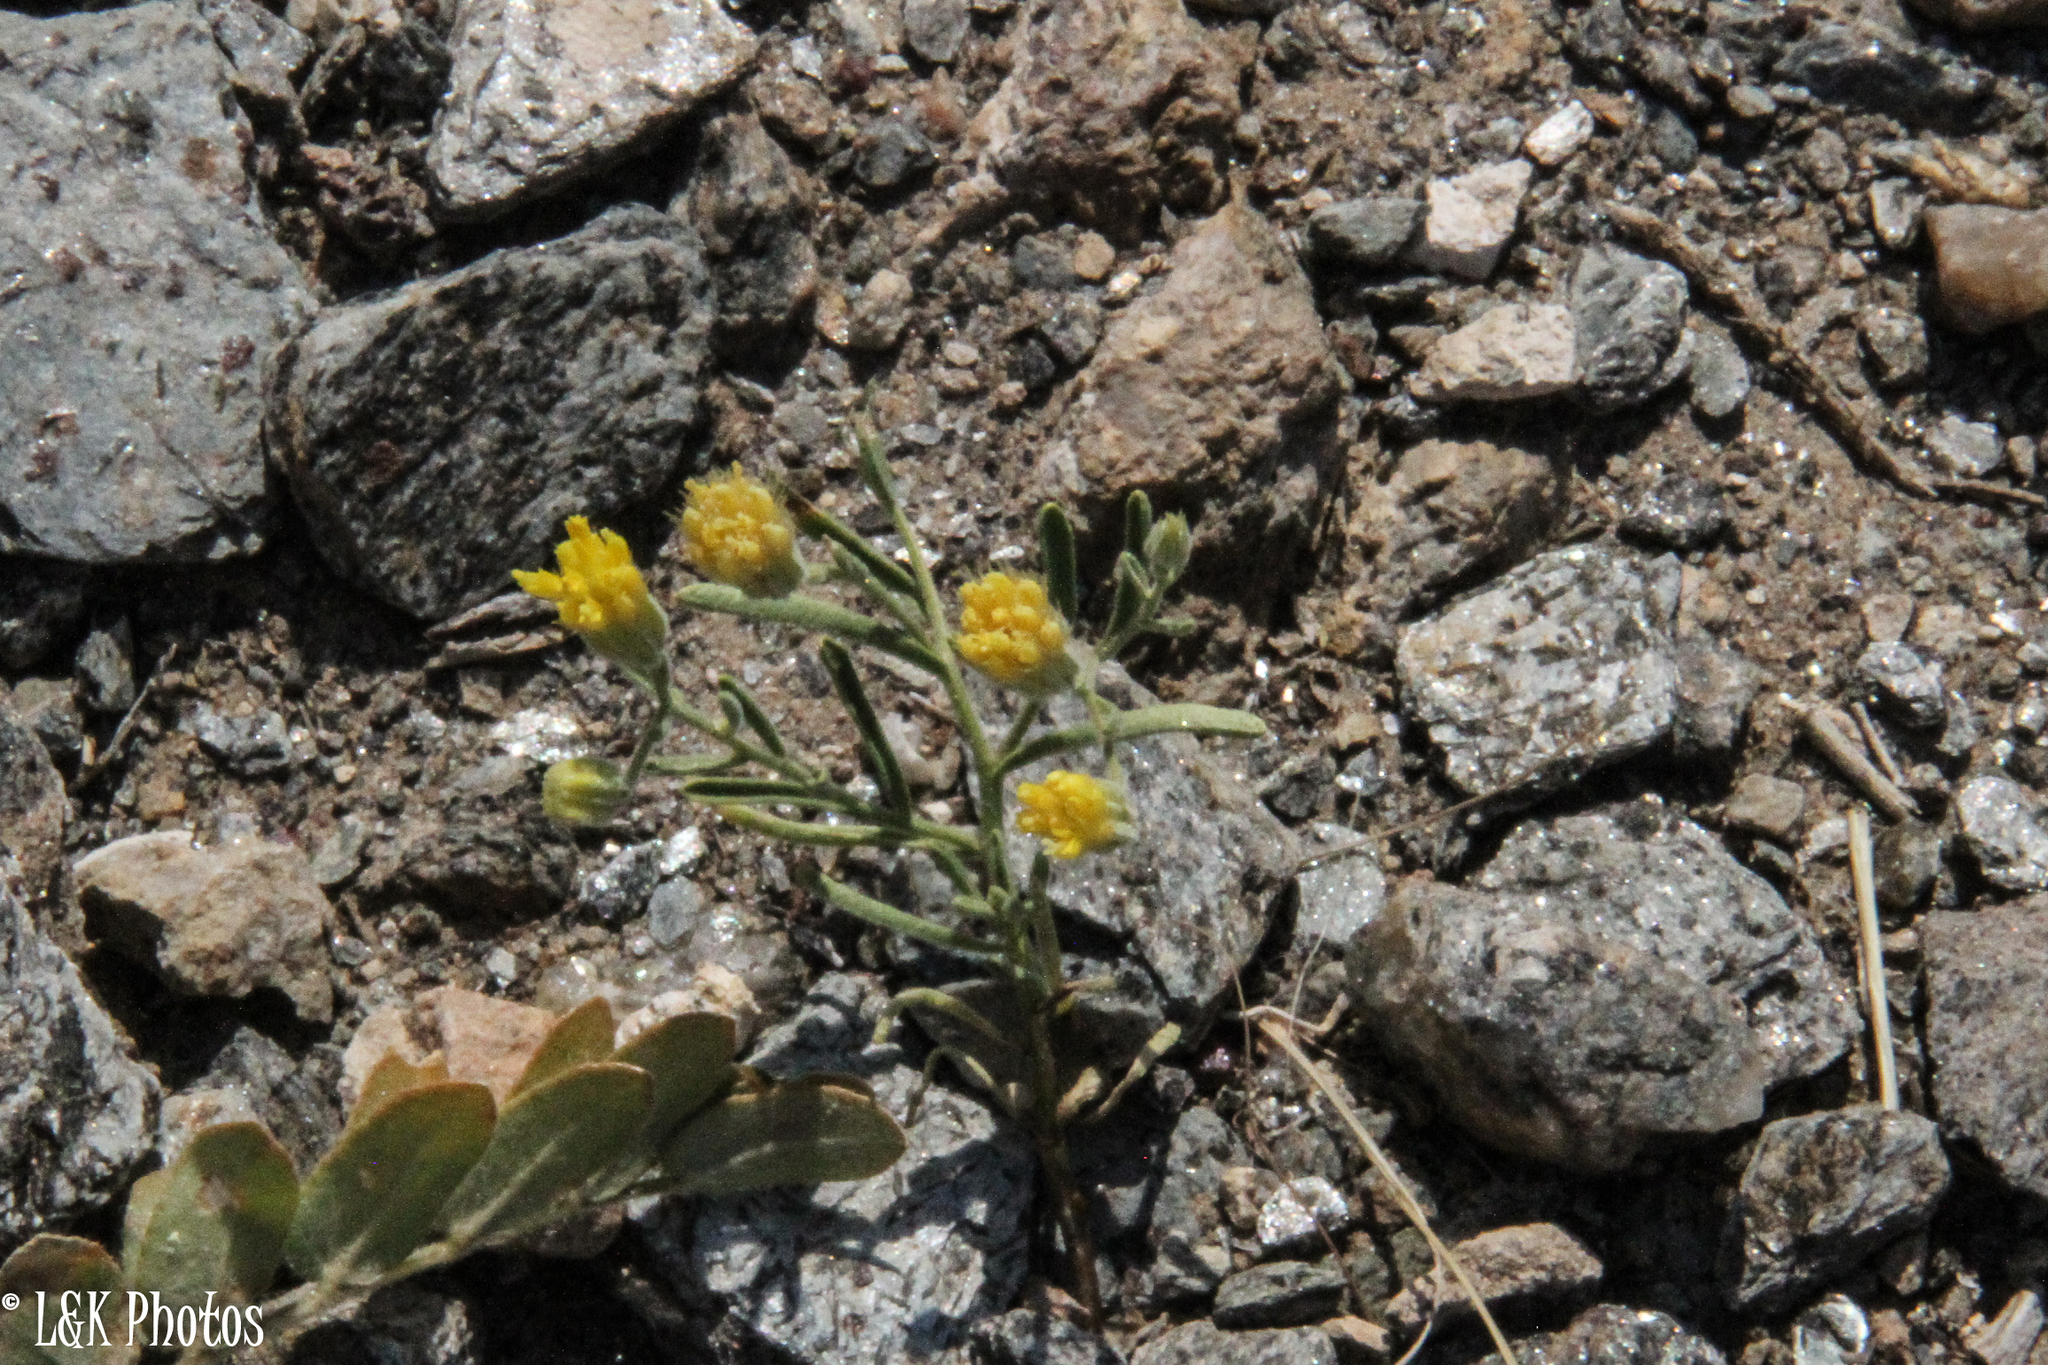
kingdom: Plantae
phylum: Tracheophyta
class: Magnoliopsida
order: Asterales
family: Asteraceae
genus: Pegolettia
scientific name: Pegolettia senegalensis
